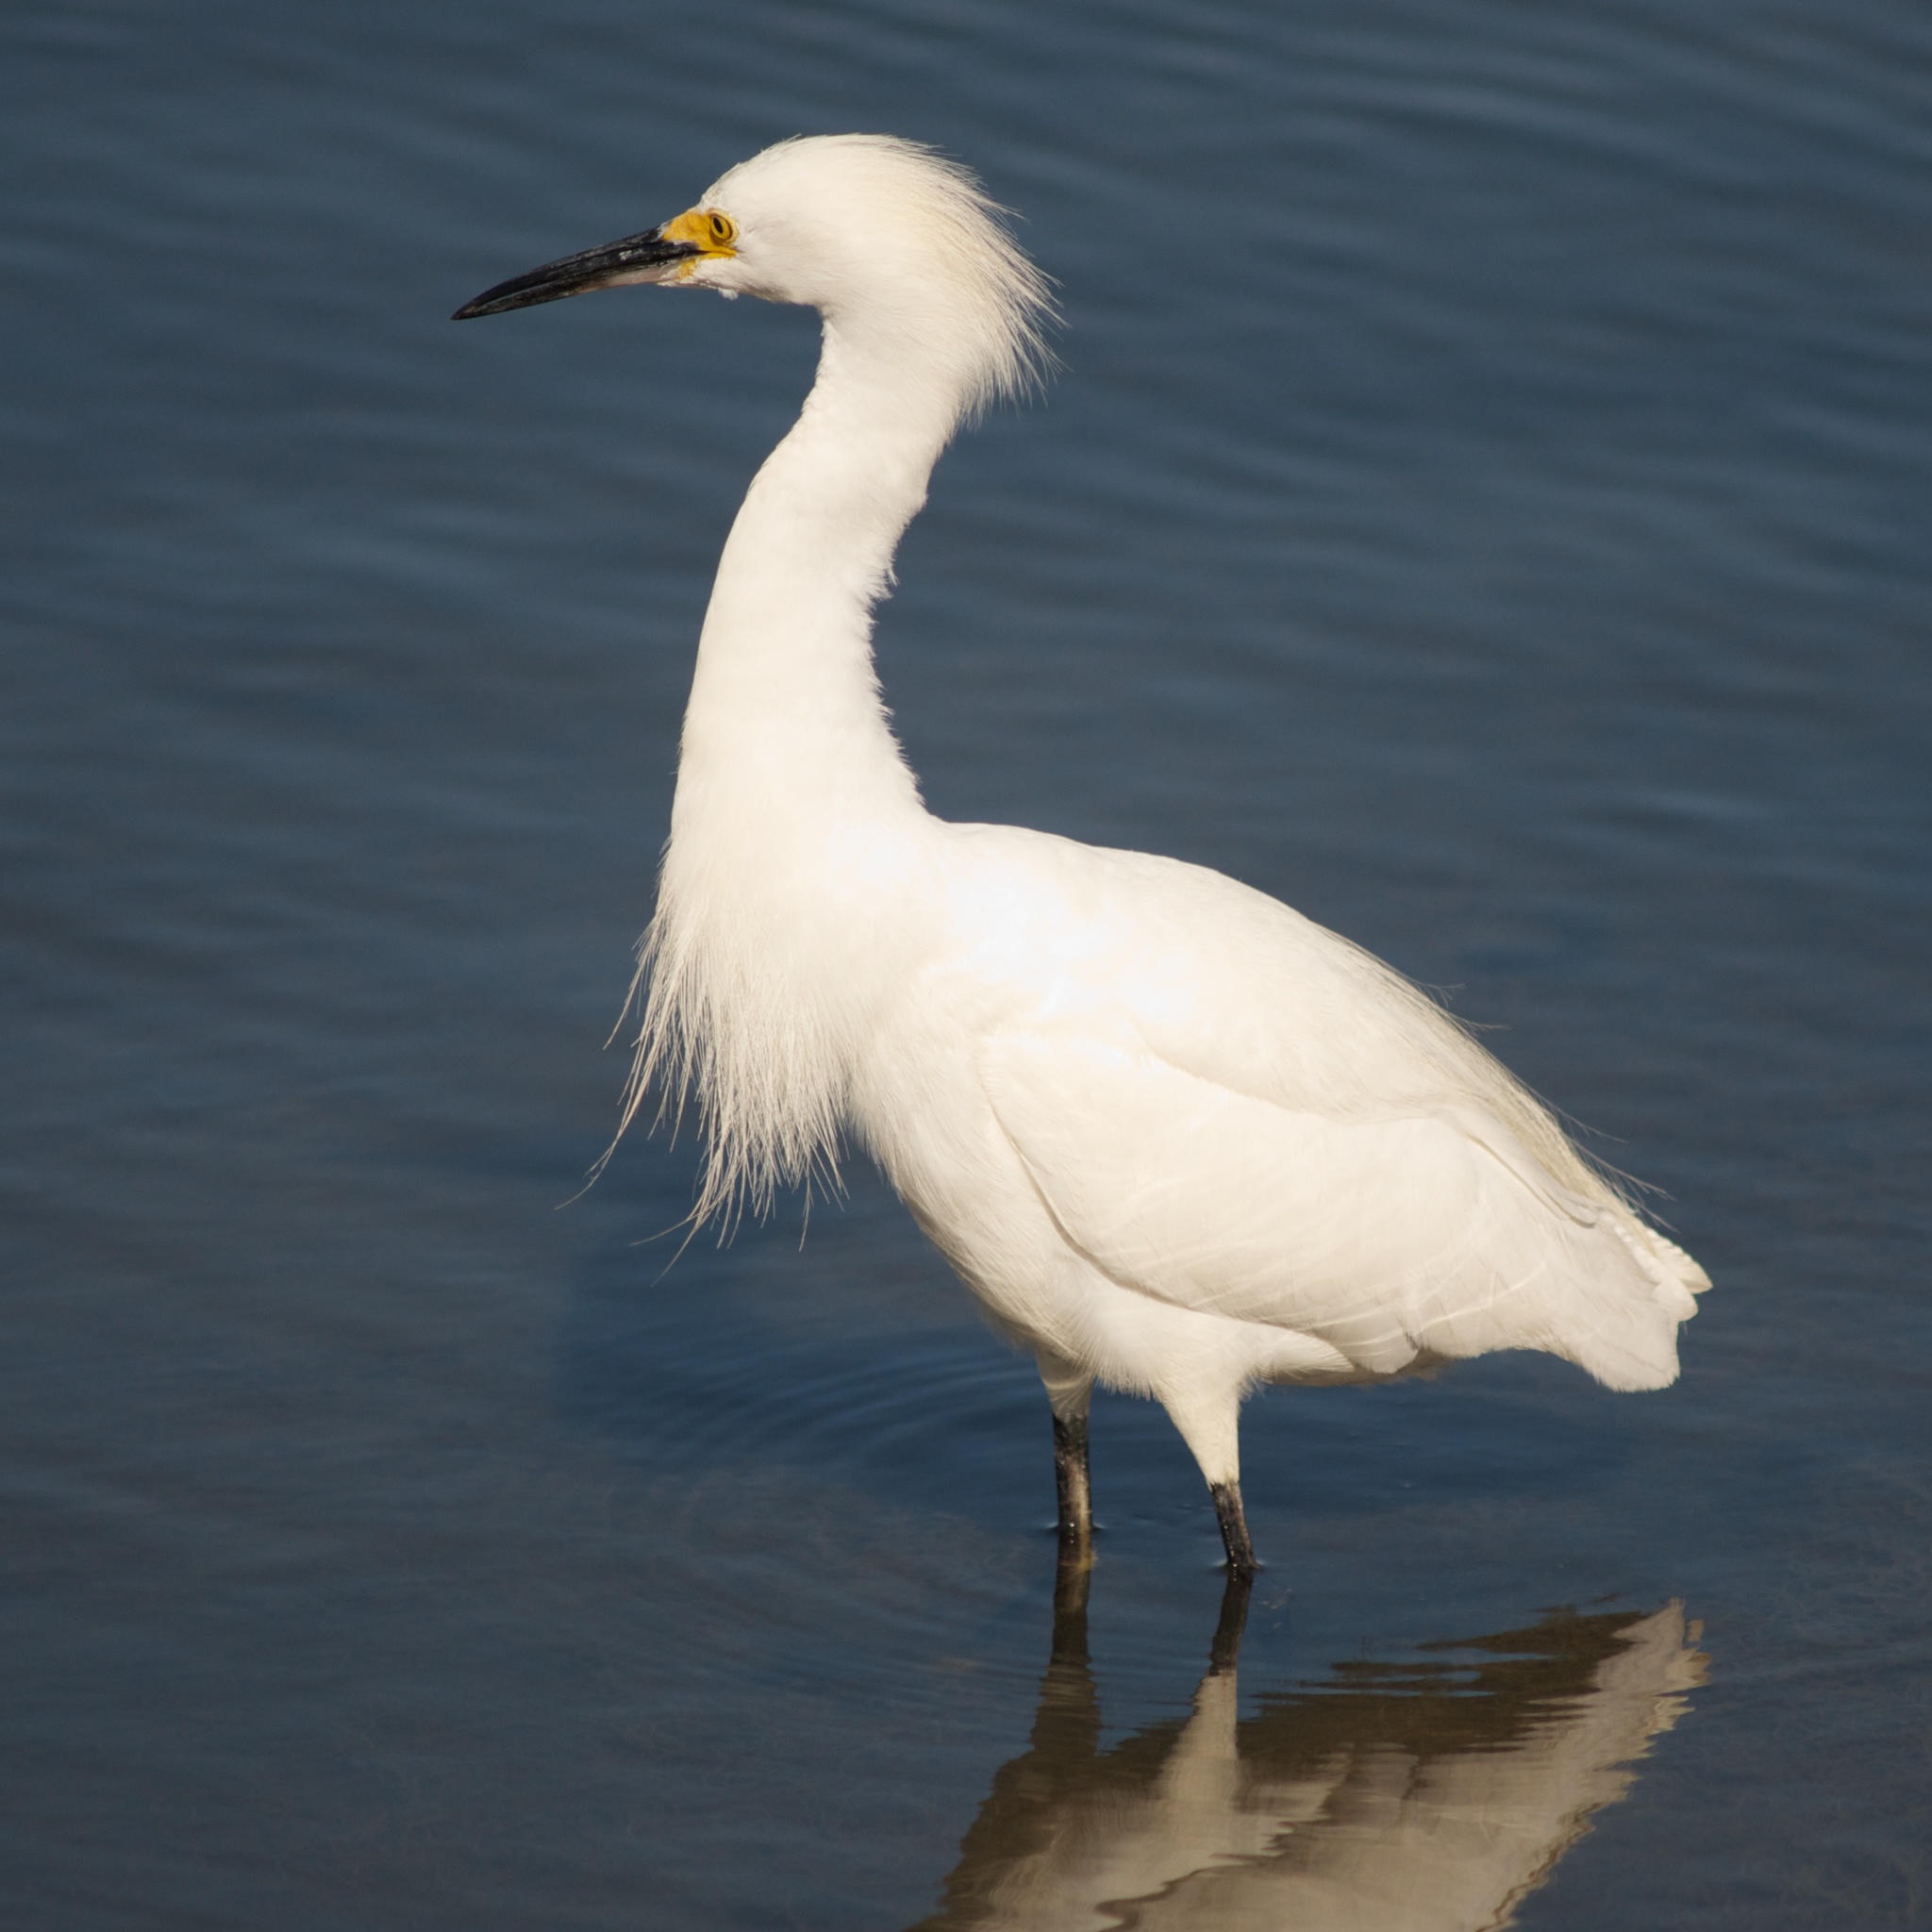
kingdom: Animalia
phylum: Chordata
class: Aves
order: Pelecaniformes
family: Ardeidae
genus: Egretta
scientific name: Egretta thula
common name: Snowy egret
